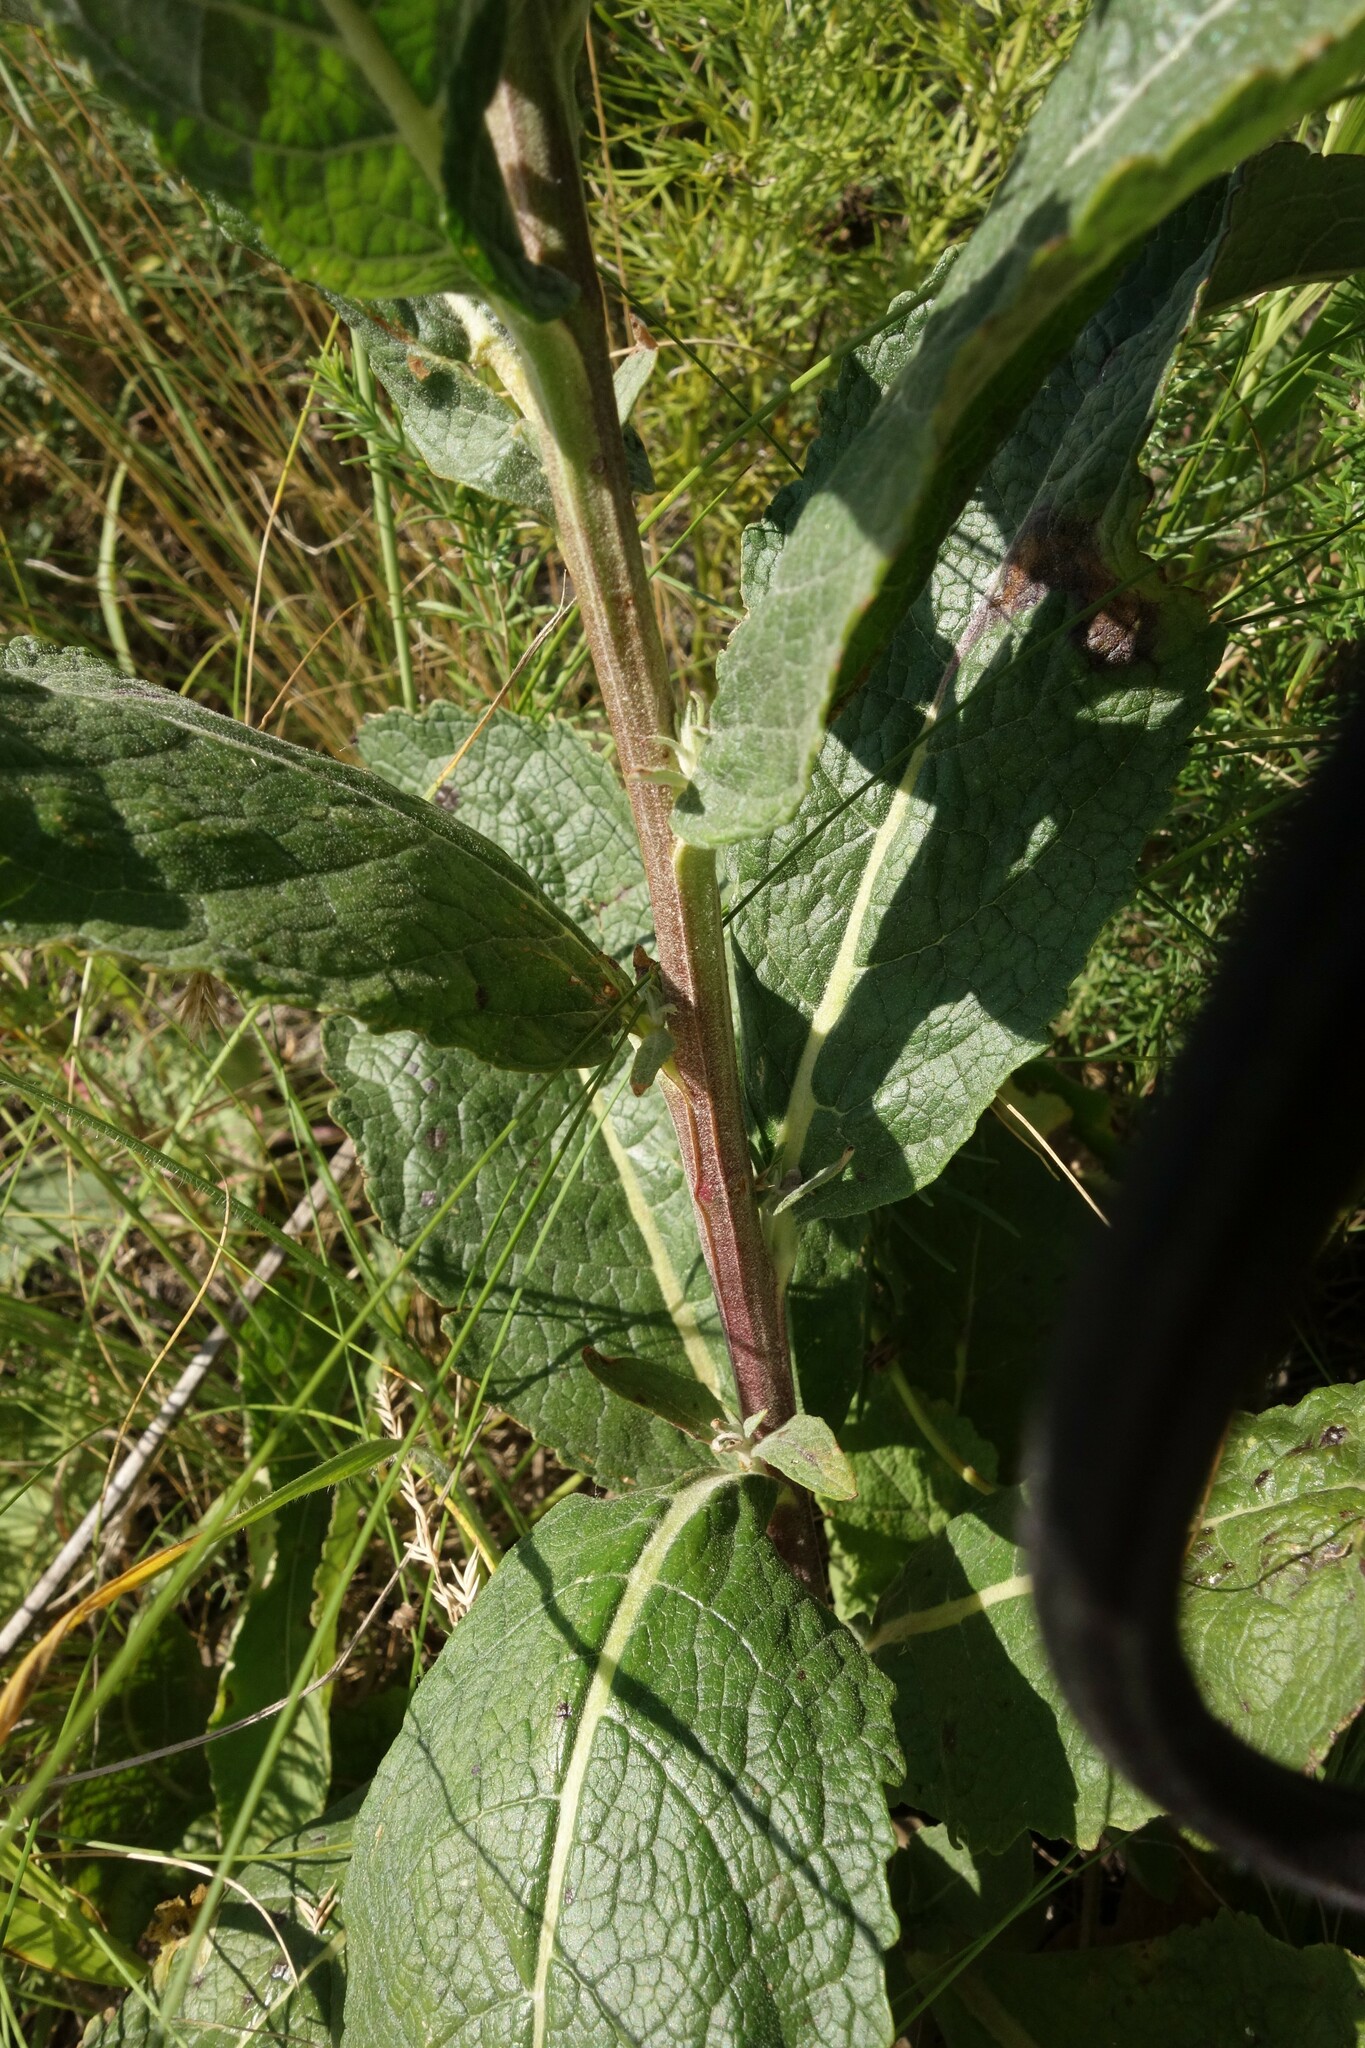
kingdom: Plantae
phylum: Tracheophyta
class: Magnoliopsida
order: Lamiales
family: Scrophulariaceae
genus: Verbascum
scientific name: Verbascum lychnitis
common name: White mullein
